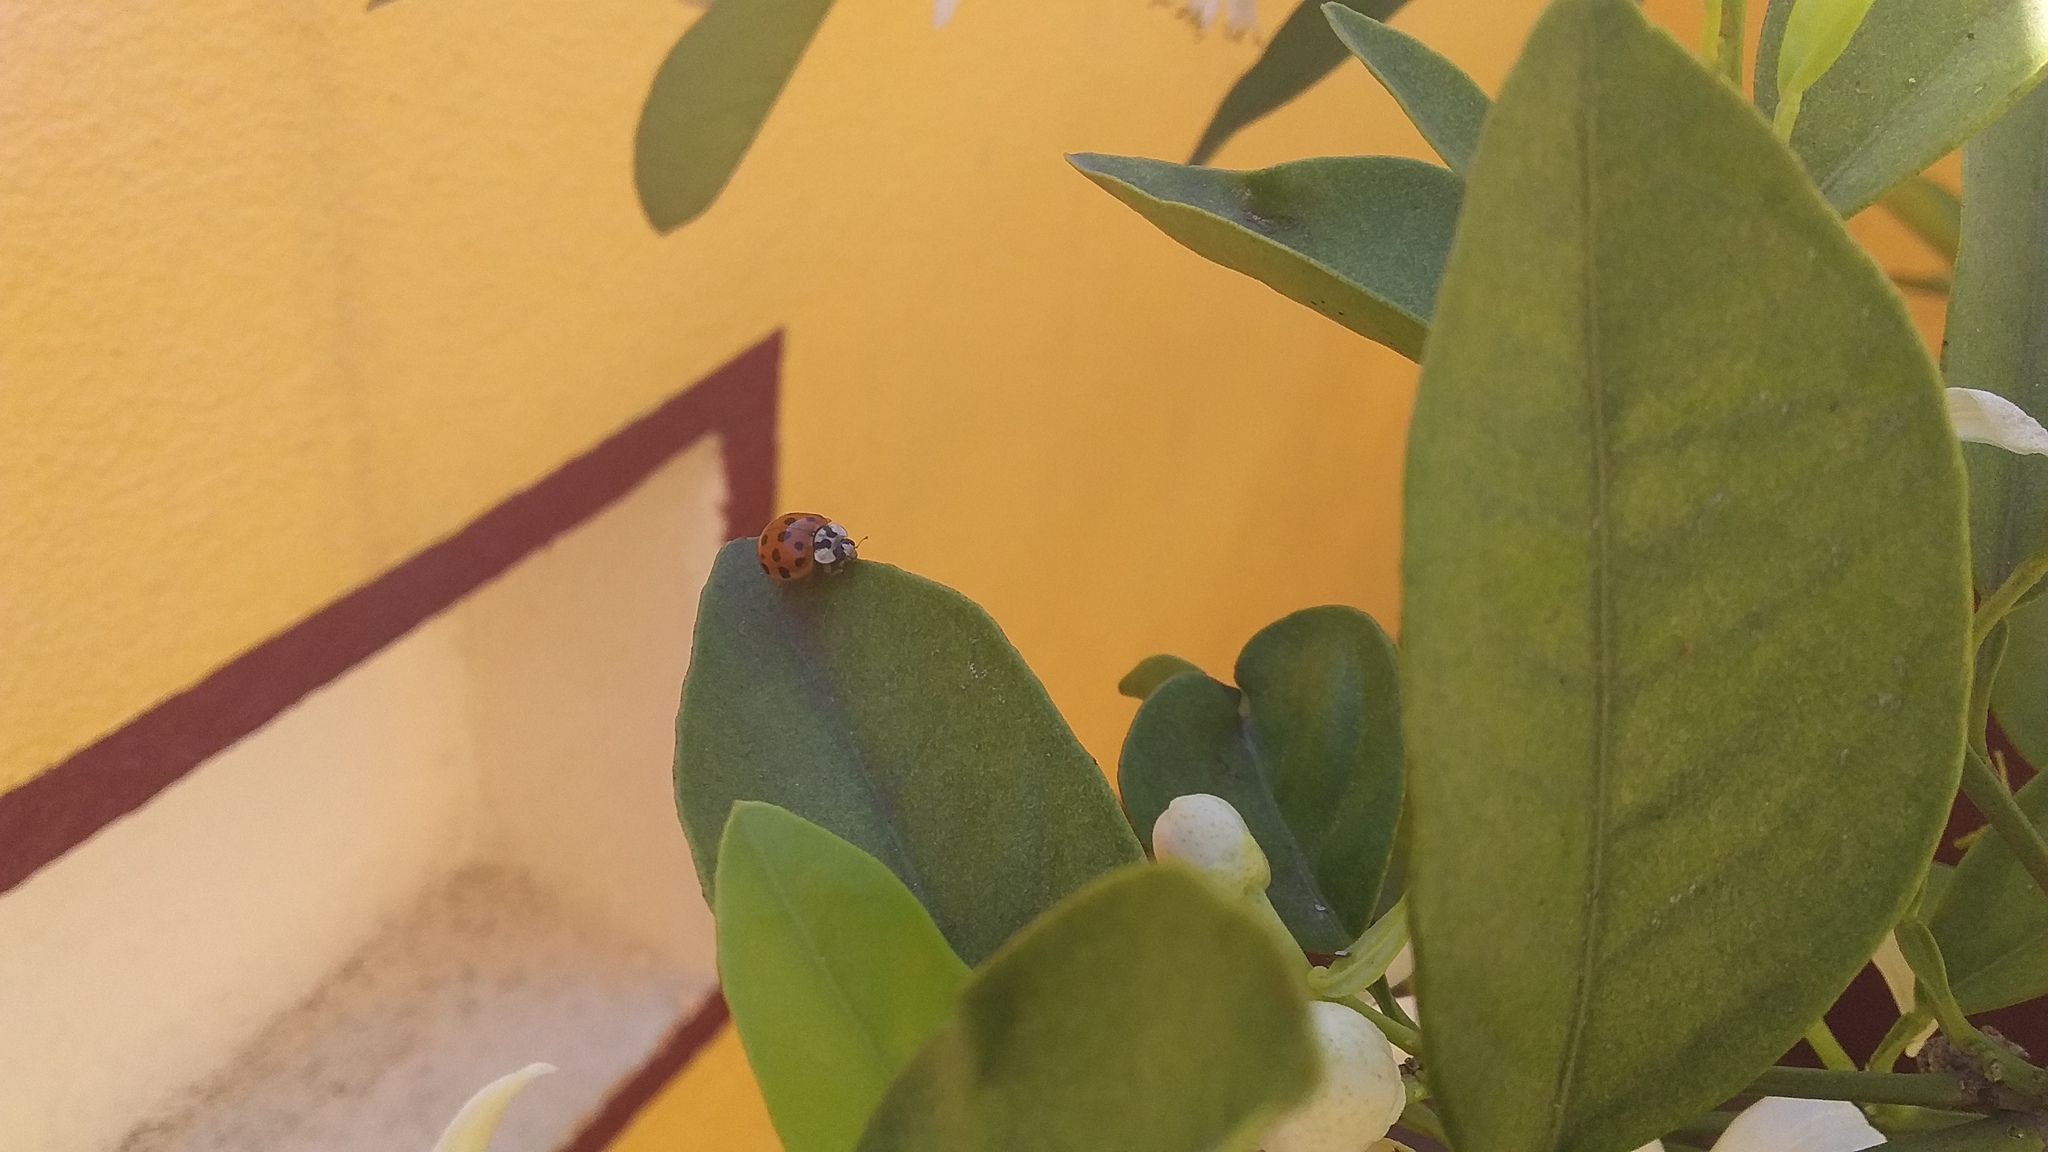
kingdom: Animalia
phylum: Arthropoda
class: Insecta
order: Coleoptera
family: Coccinellidae
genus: Harmonia
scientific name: Harmonia axyridis
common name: Harlequin ladybird
